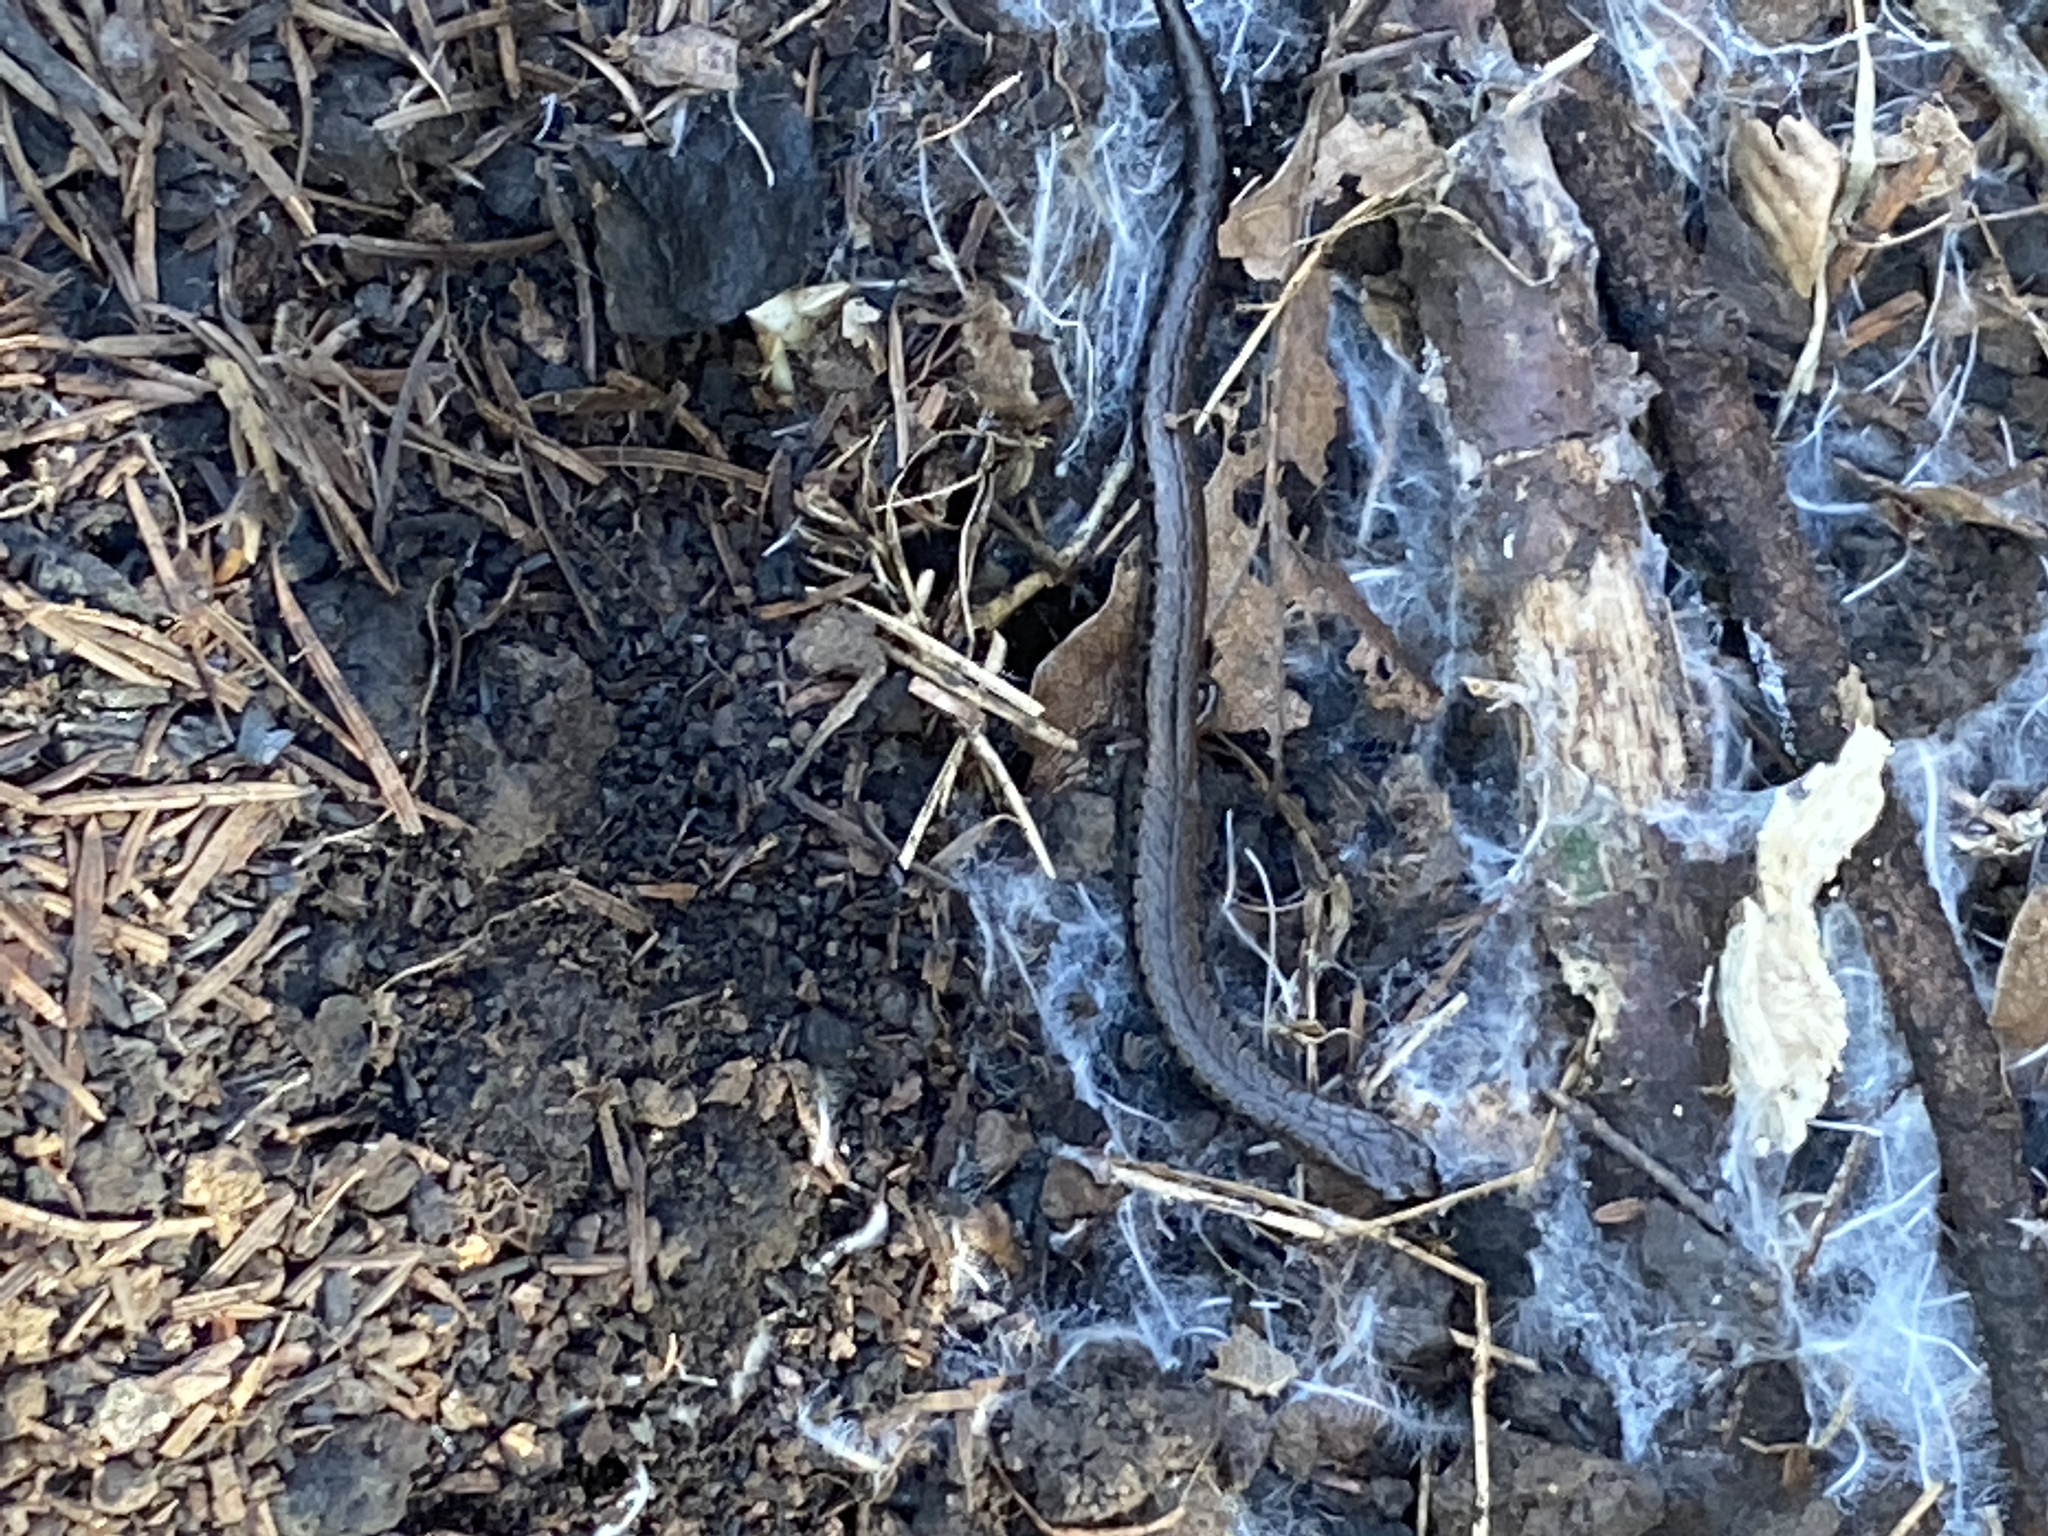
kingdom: Animalia
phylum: Chordata
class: Amphibia
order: Caudata
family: Plethodontidae
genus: Batrachoseps
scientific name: Batrachoseps attenuatus
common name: California slender salamander
